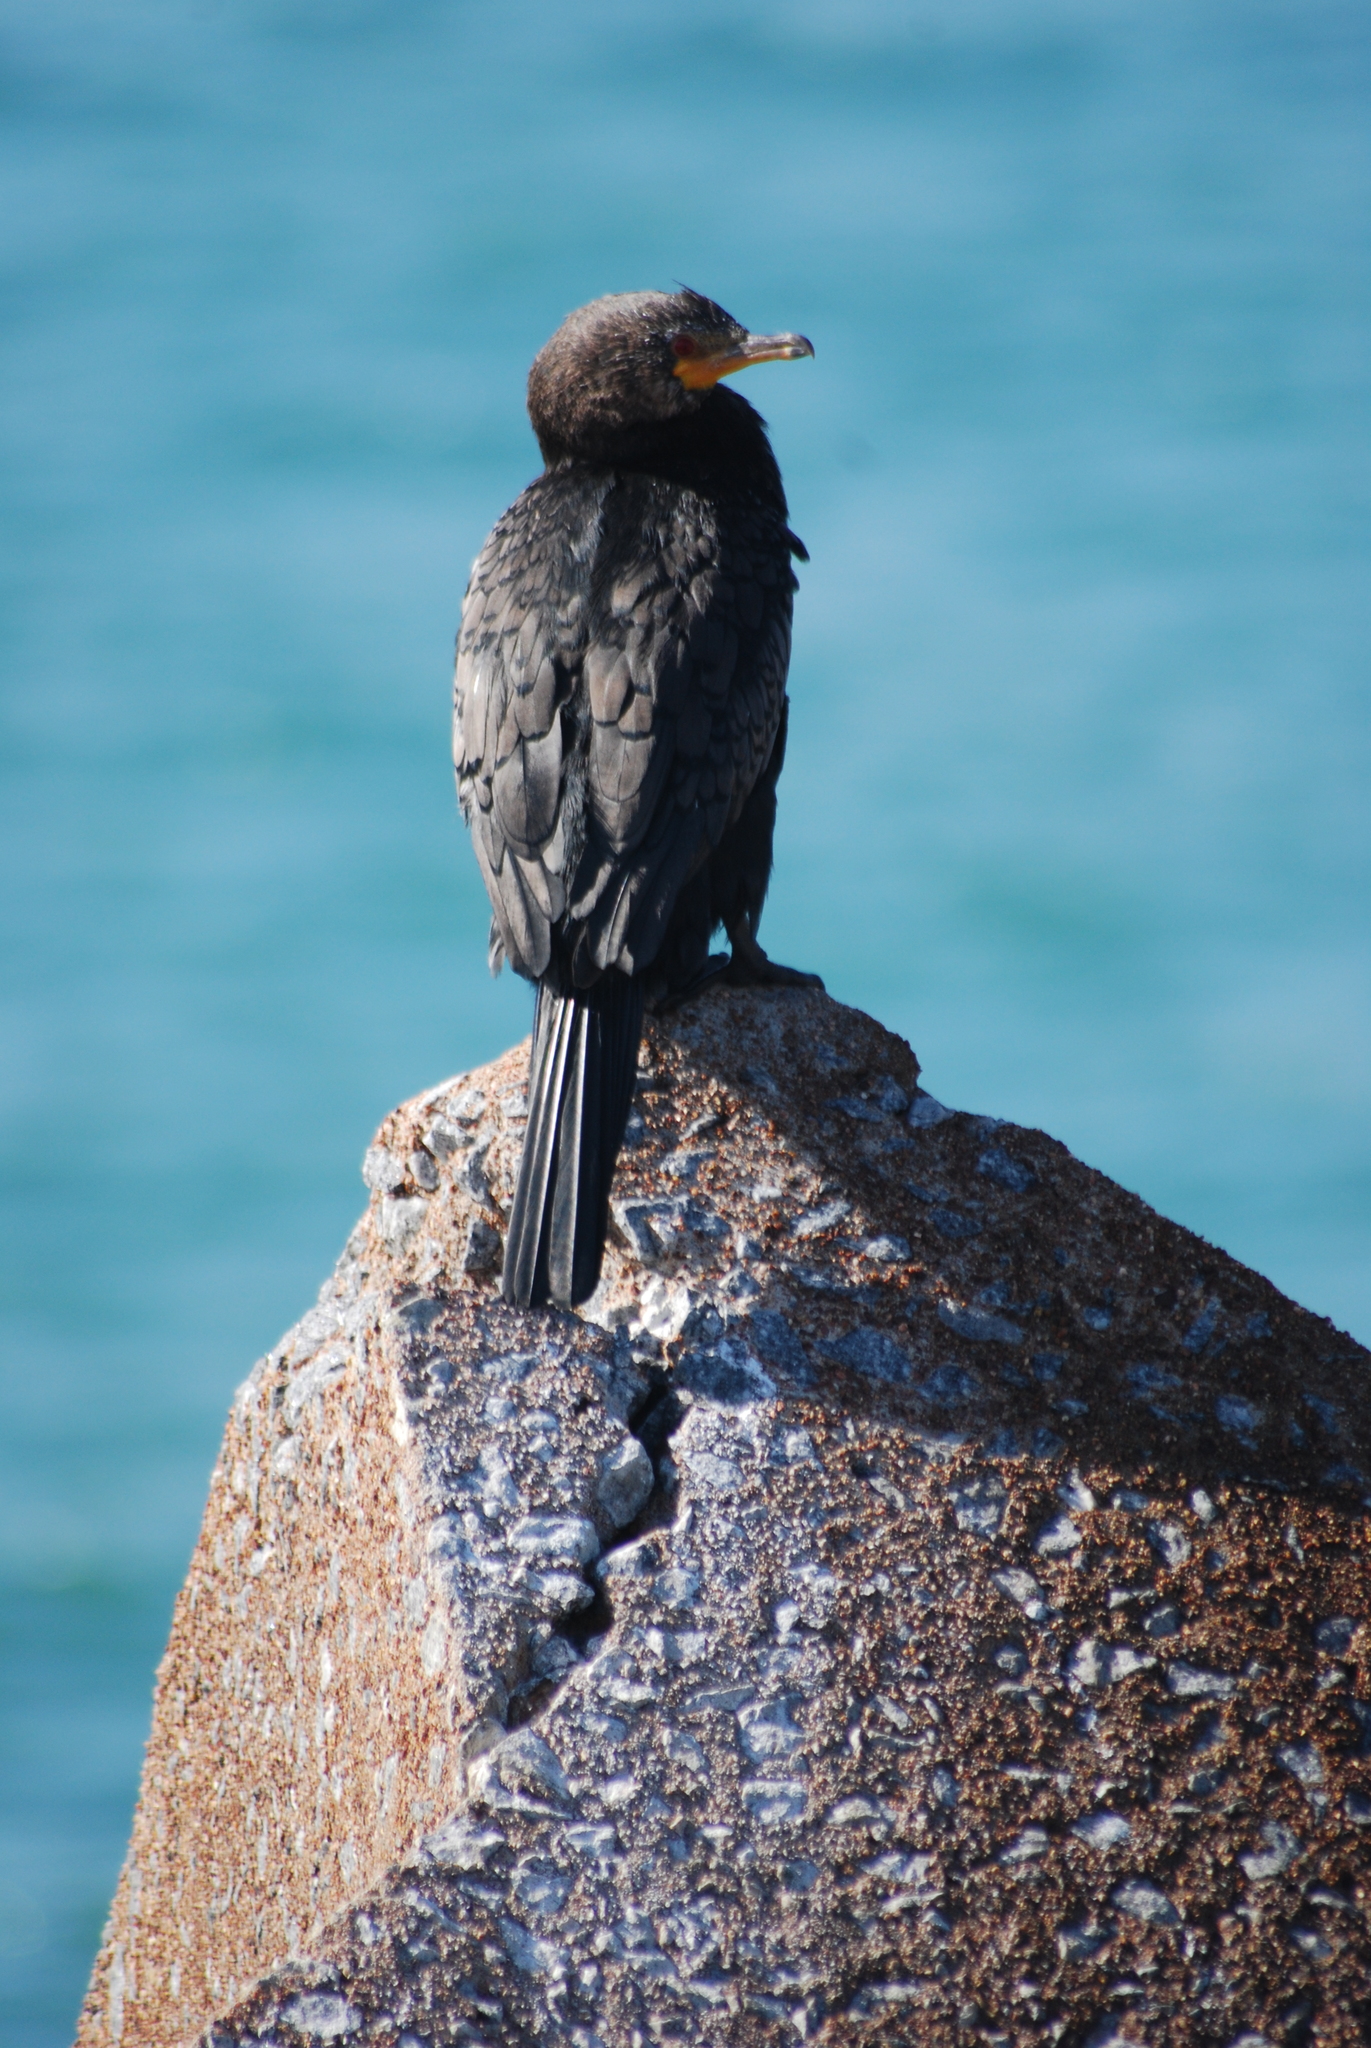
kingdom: Animalia
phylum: Chordata
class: Aves
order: Suliformes
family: Phalacrocoracidae
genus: Microcarbo
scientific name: Microcarbo coronatus
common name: Crowned cormorant
